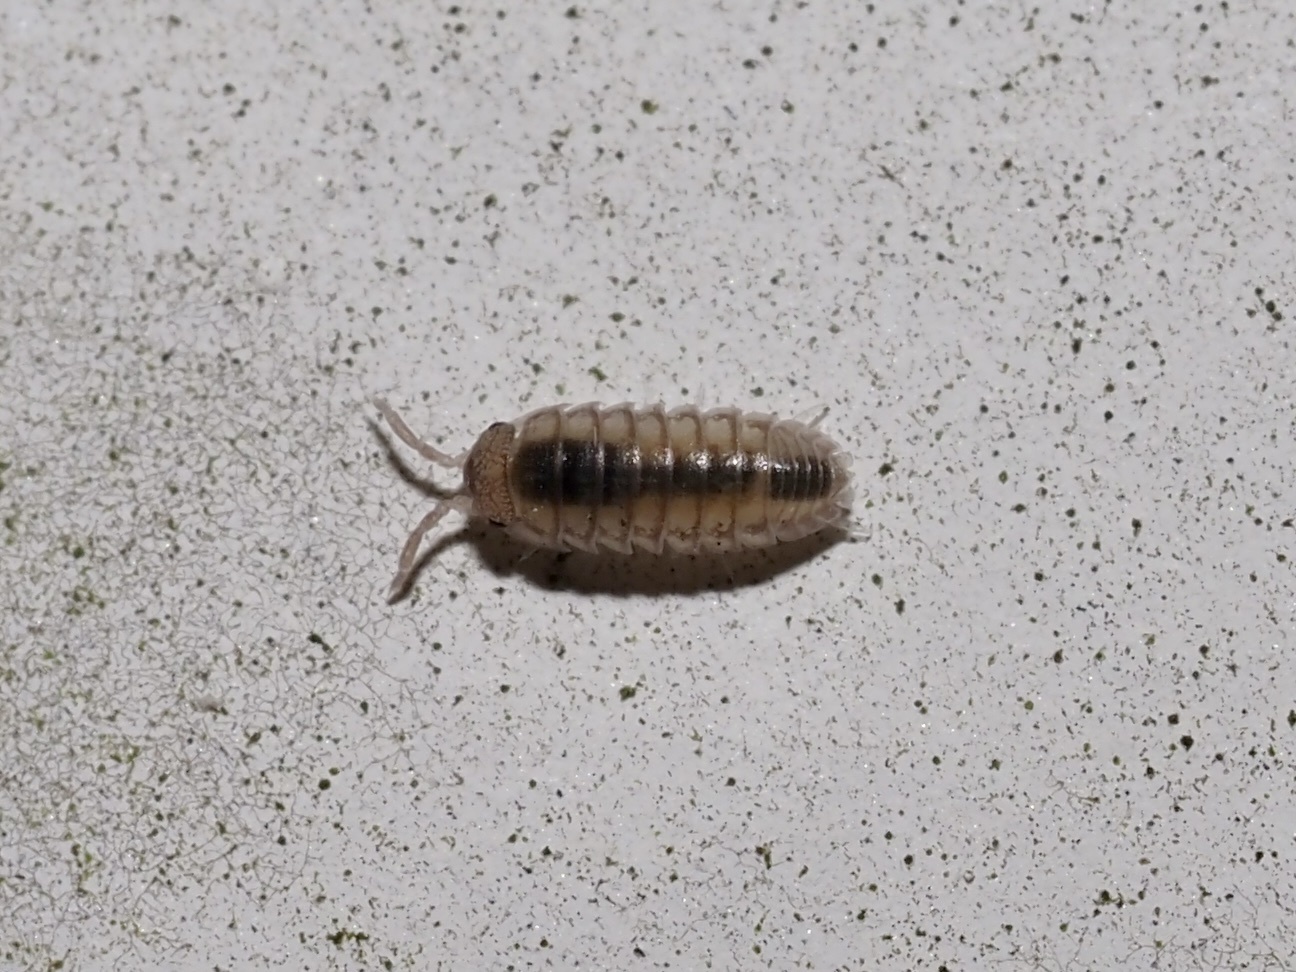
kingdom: Animalia
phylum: Arthropoda
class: Malacostraca
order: Isopoda
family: Armadillidiidae
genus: Armadillidium
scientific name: Armadillidium nasatum
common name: Isopod
